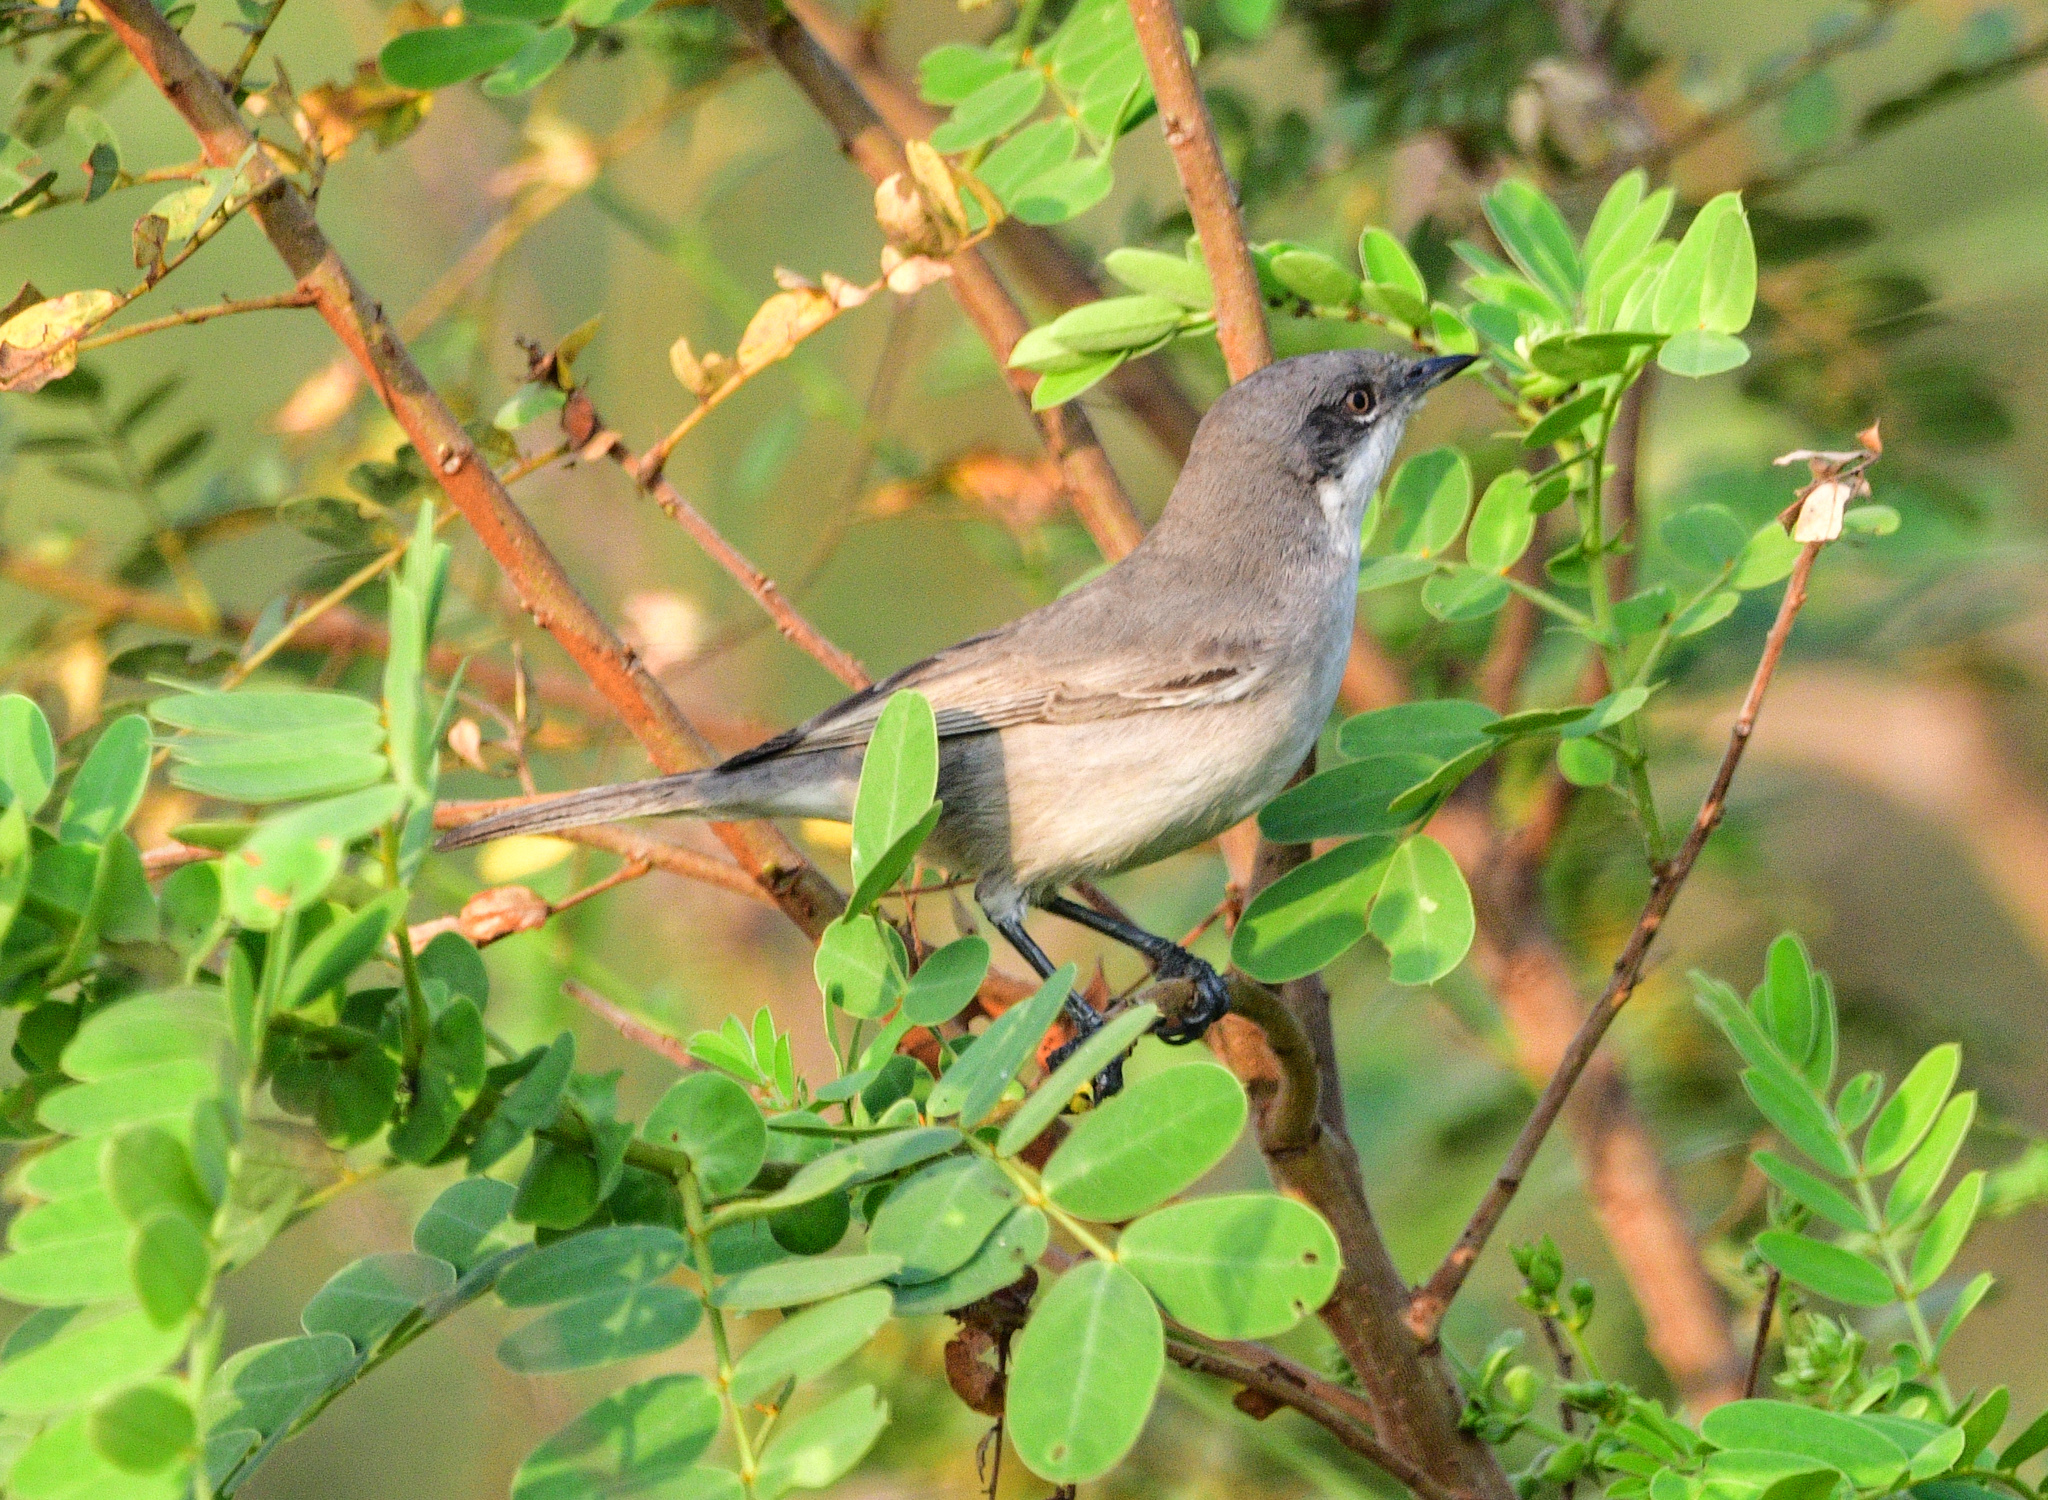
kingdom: Animalia
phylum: Chordata
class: Aves
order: Passeriformes
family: Sylviidae
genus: Sylvia
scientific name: Sylvia curruca
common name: Lesser whitethroat
